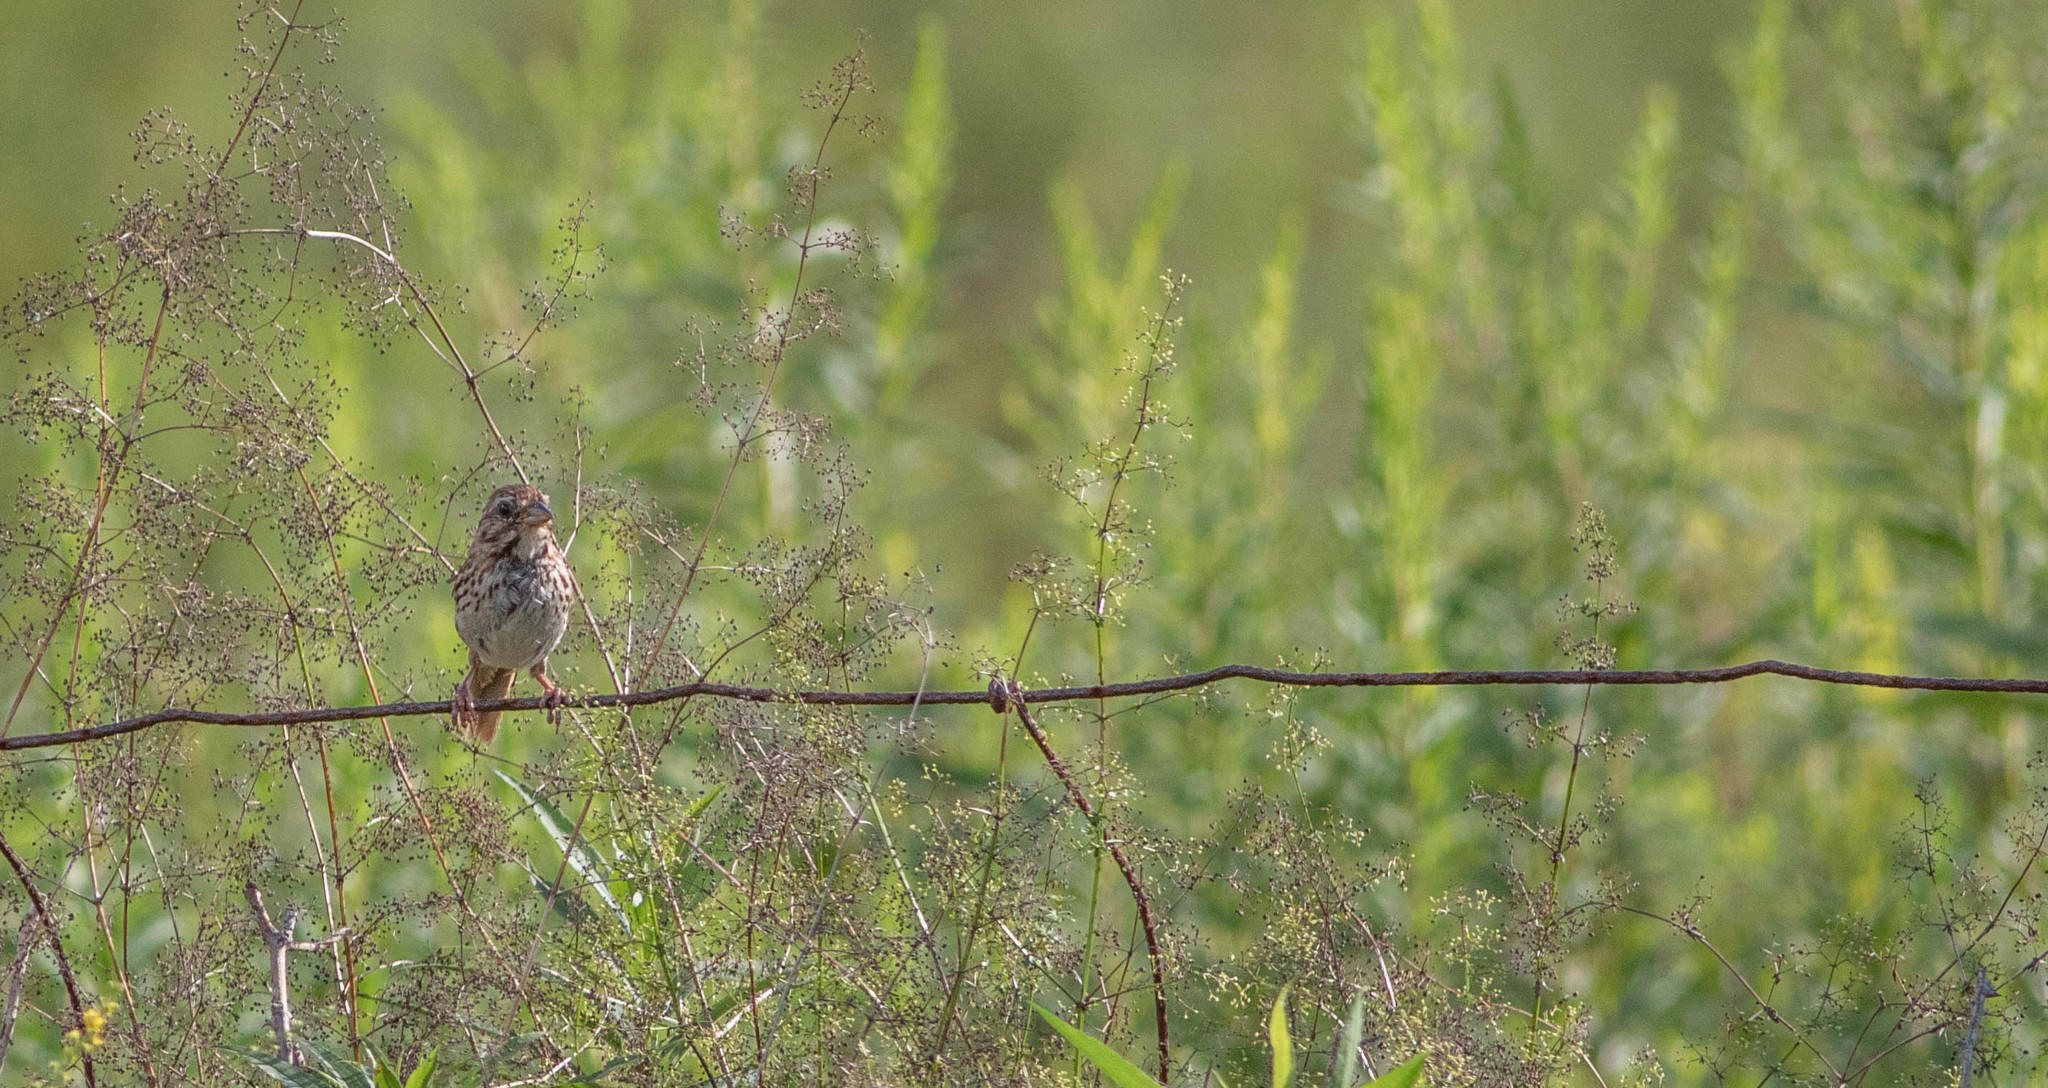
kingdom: Animalia
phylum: Chordata
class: Aves
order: Passeriformes
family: Passerellidae
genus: Melospiza
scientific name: Melospiza melodia
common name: Song sparrow
